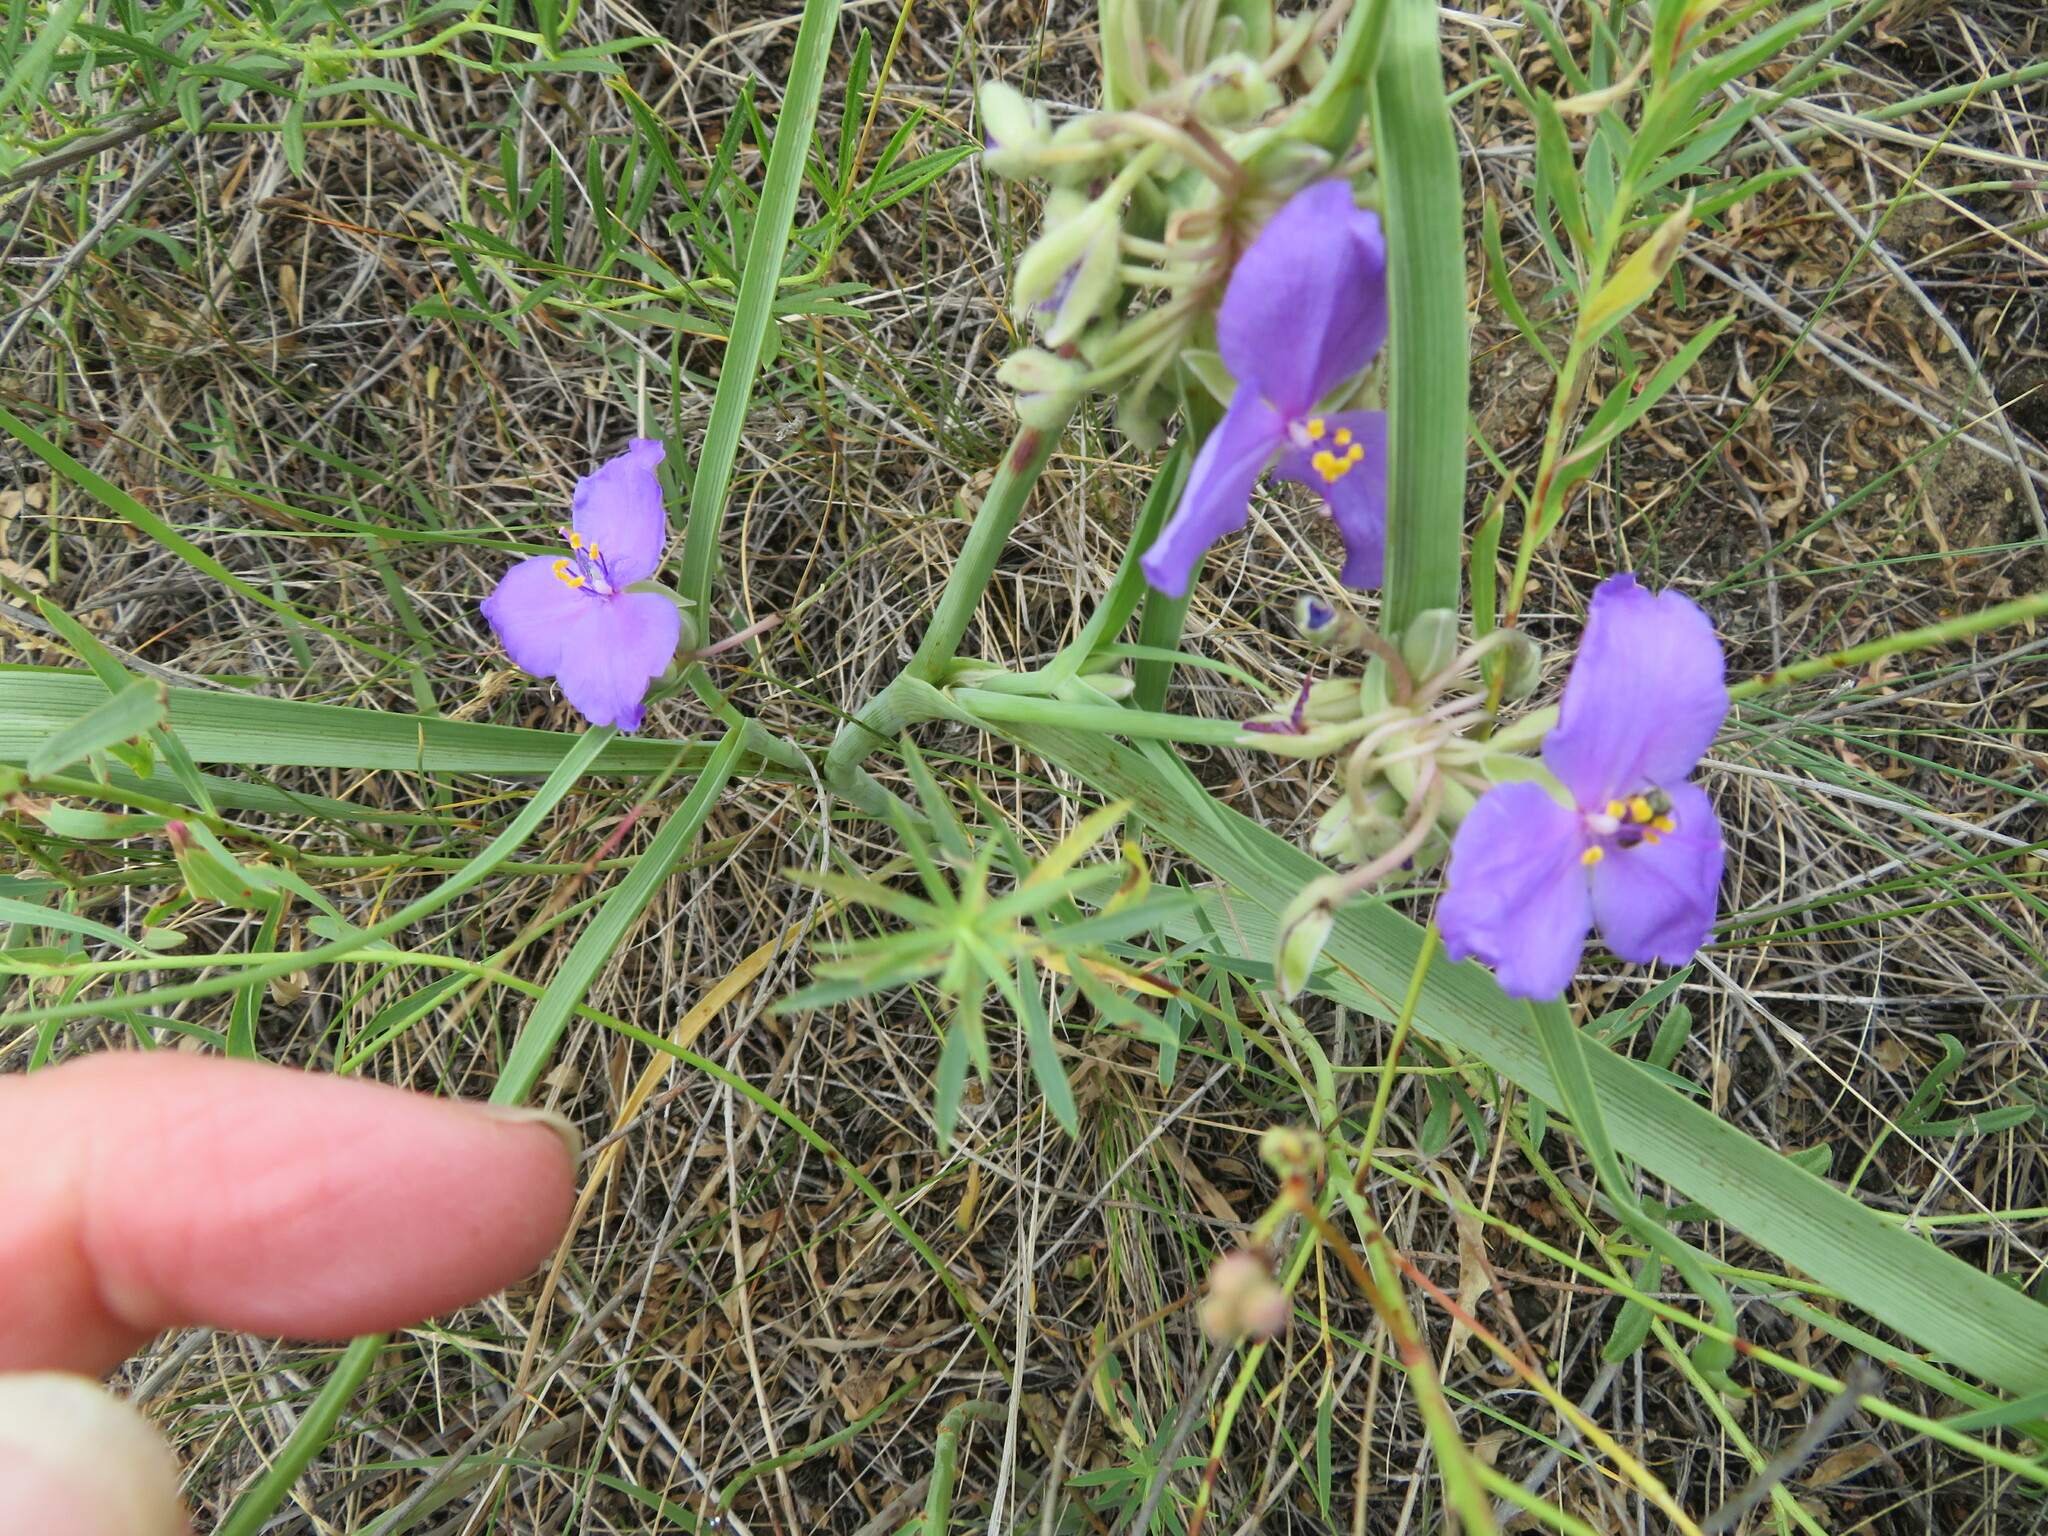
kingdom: Plantae
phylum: Tracheophyta
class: Liliopsida
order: Commelinales
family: Commelinaceae
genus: Tradescantia
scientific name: Tradescantia occidentalis
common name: Prairie spiderwort
